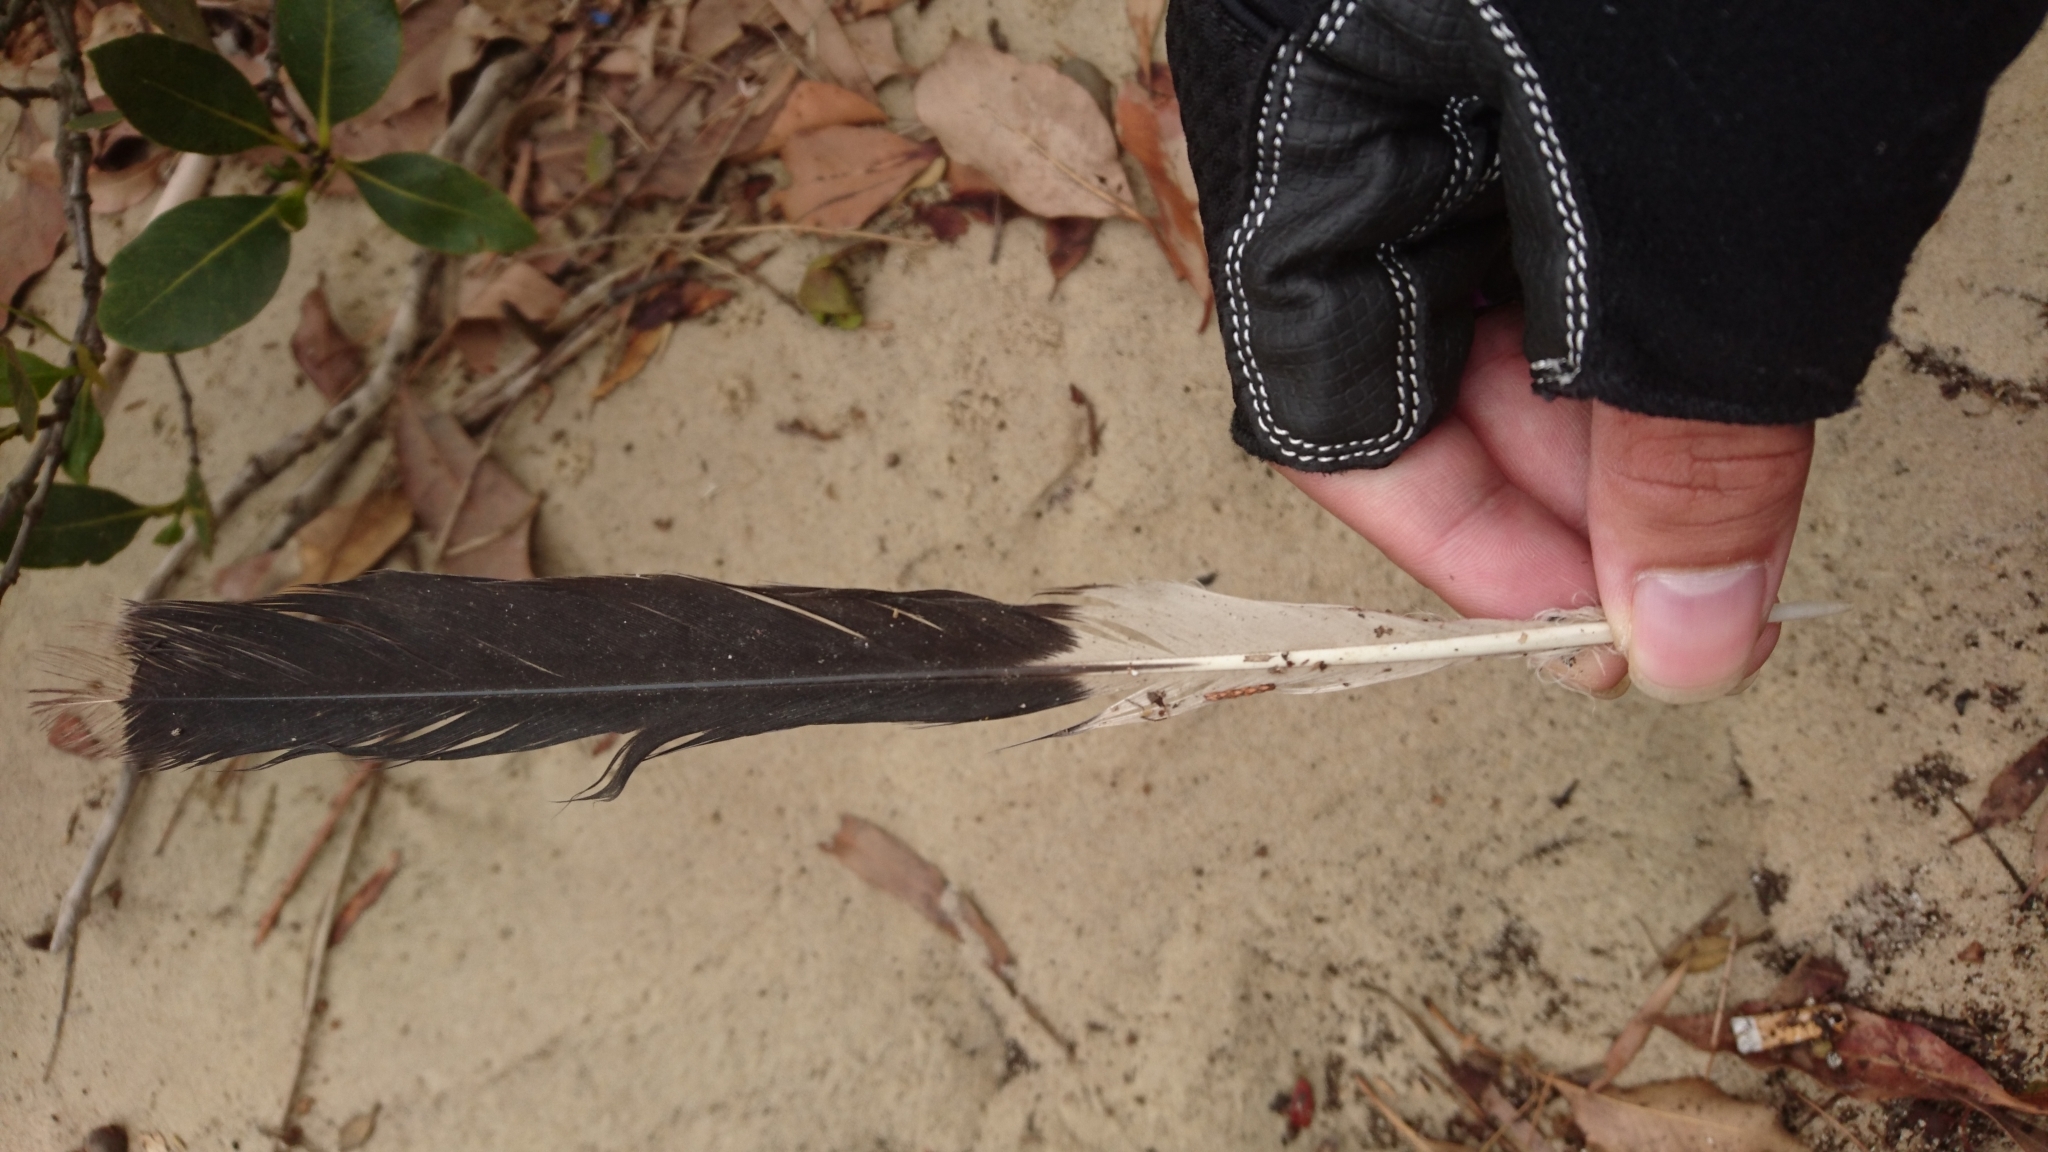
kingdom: Animalia
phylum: Chordata
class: Aves
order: Passeriformes
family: Cracticidae
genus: Strepera
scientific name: Strepera graculina
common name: Pied currawong
